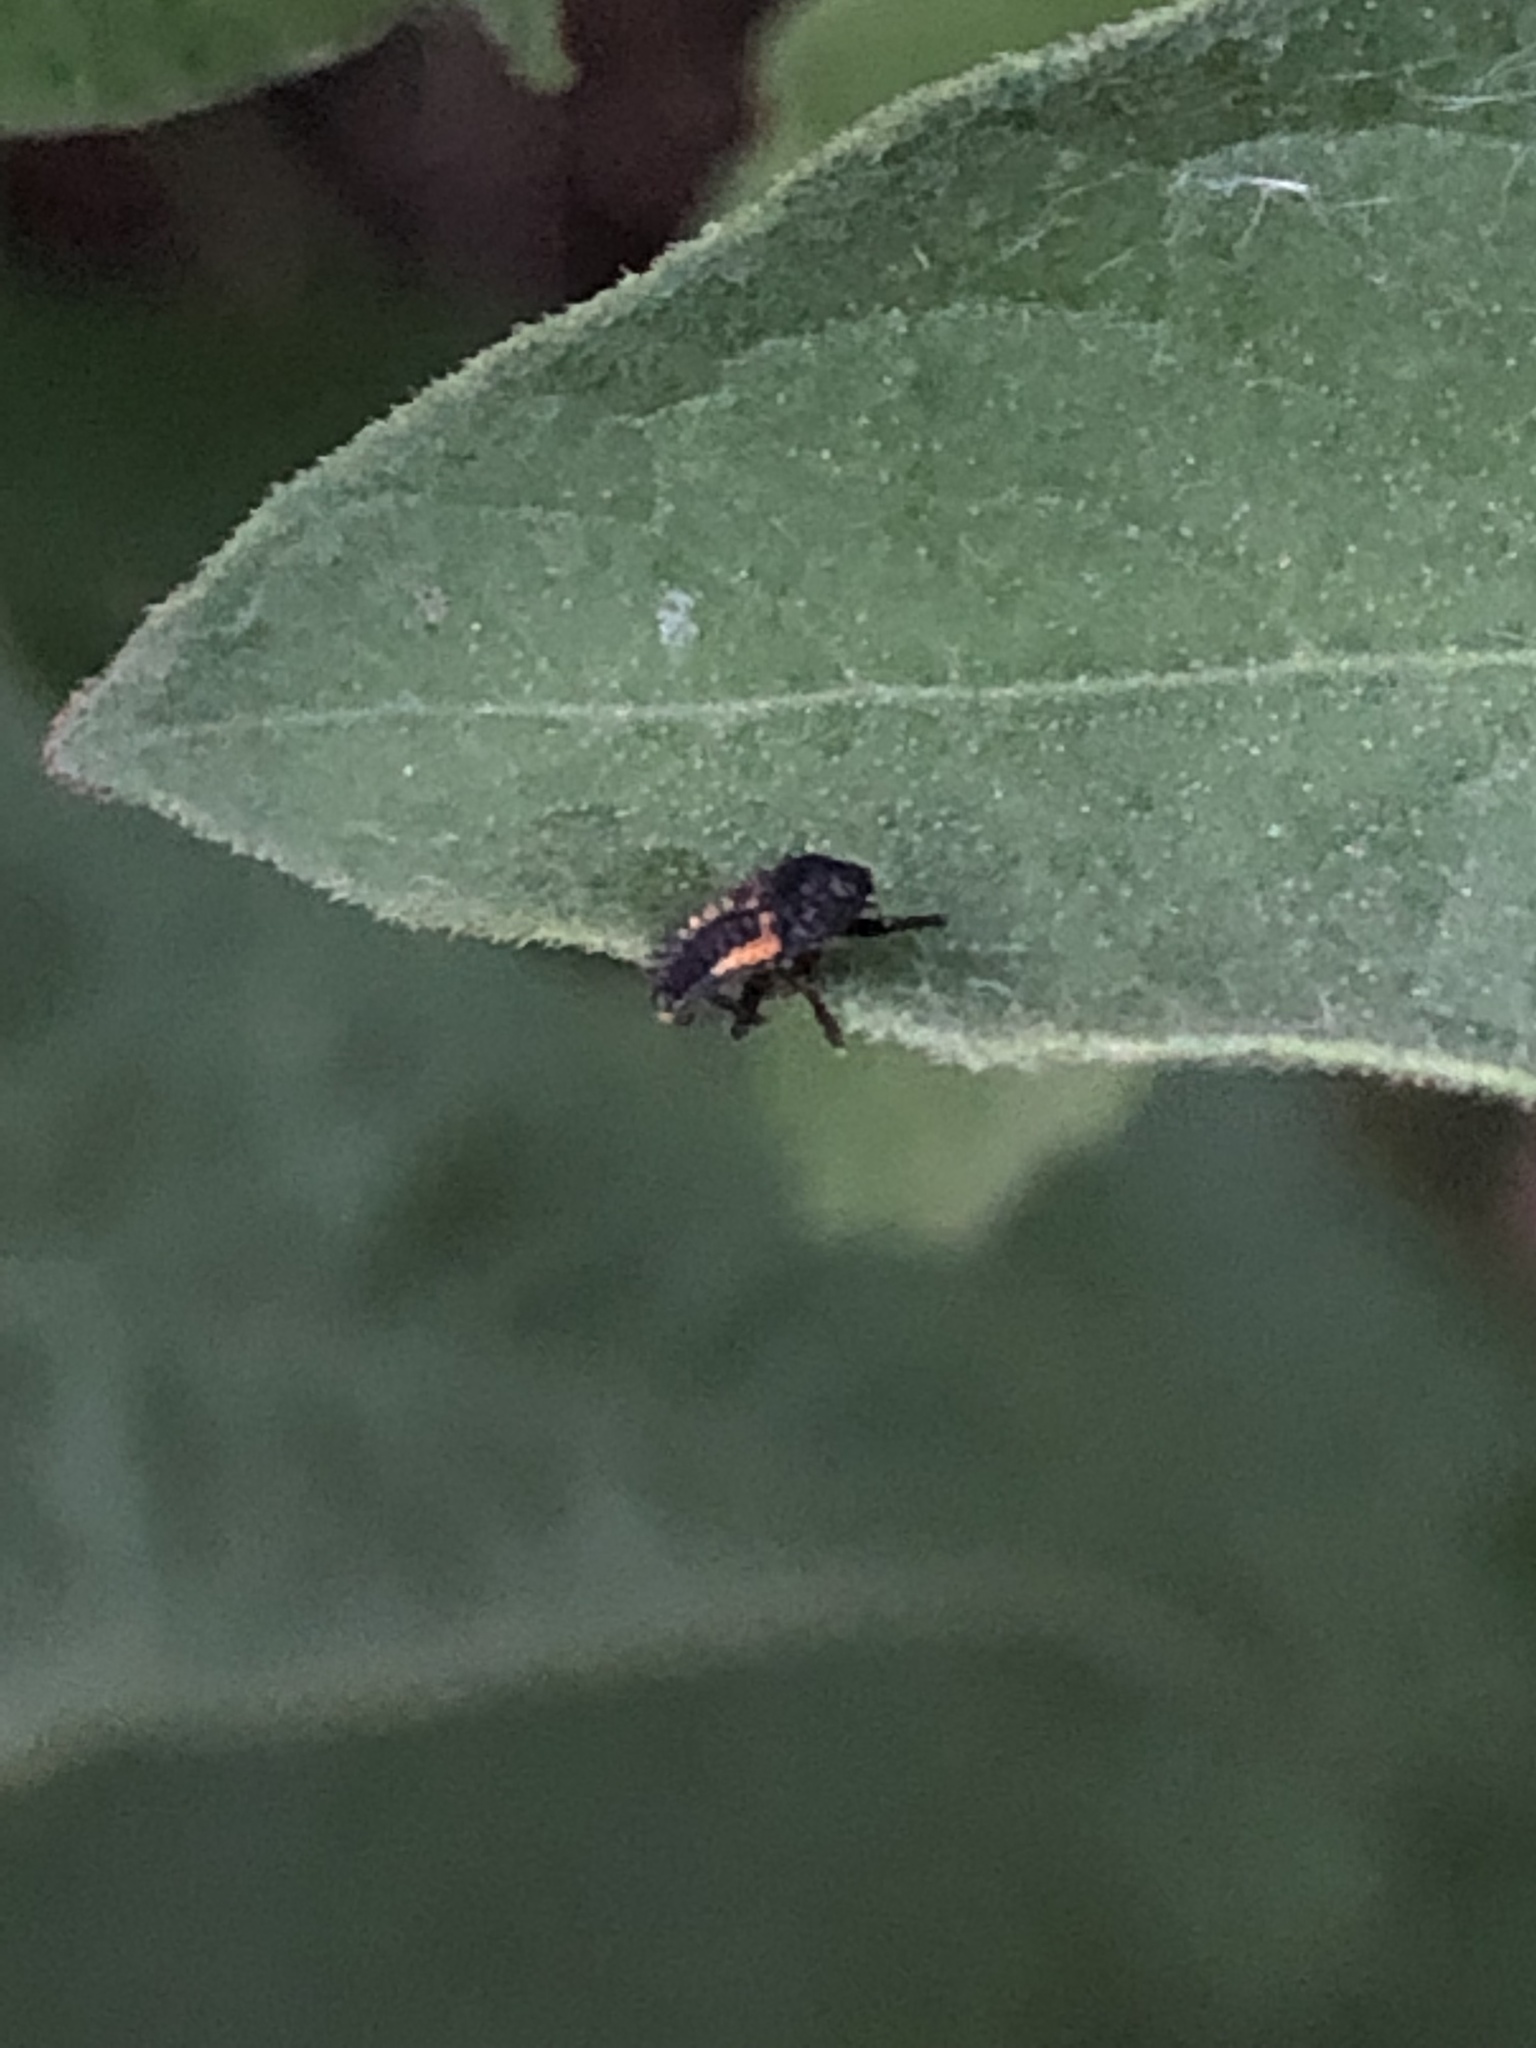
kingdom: Animalia
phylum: Arthropoda
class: Insecta
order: Coleoptera
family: Coccinellidae
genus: Harmonia
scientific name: Harmonia axyridis
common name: Harlequin ladybird
